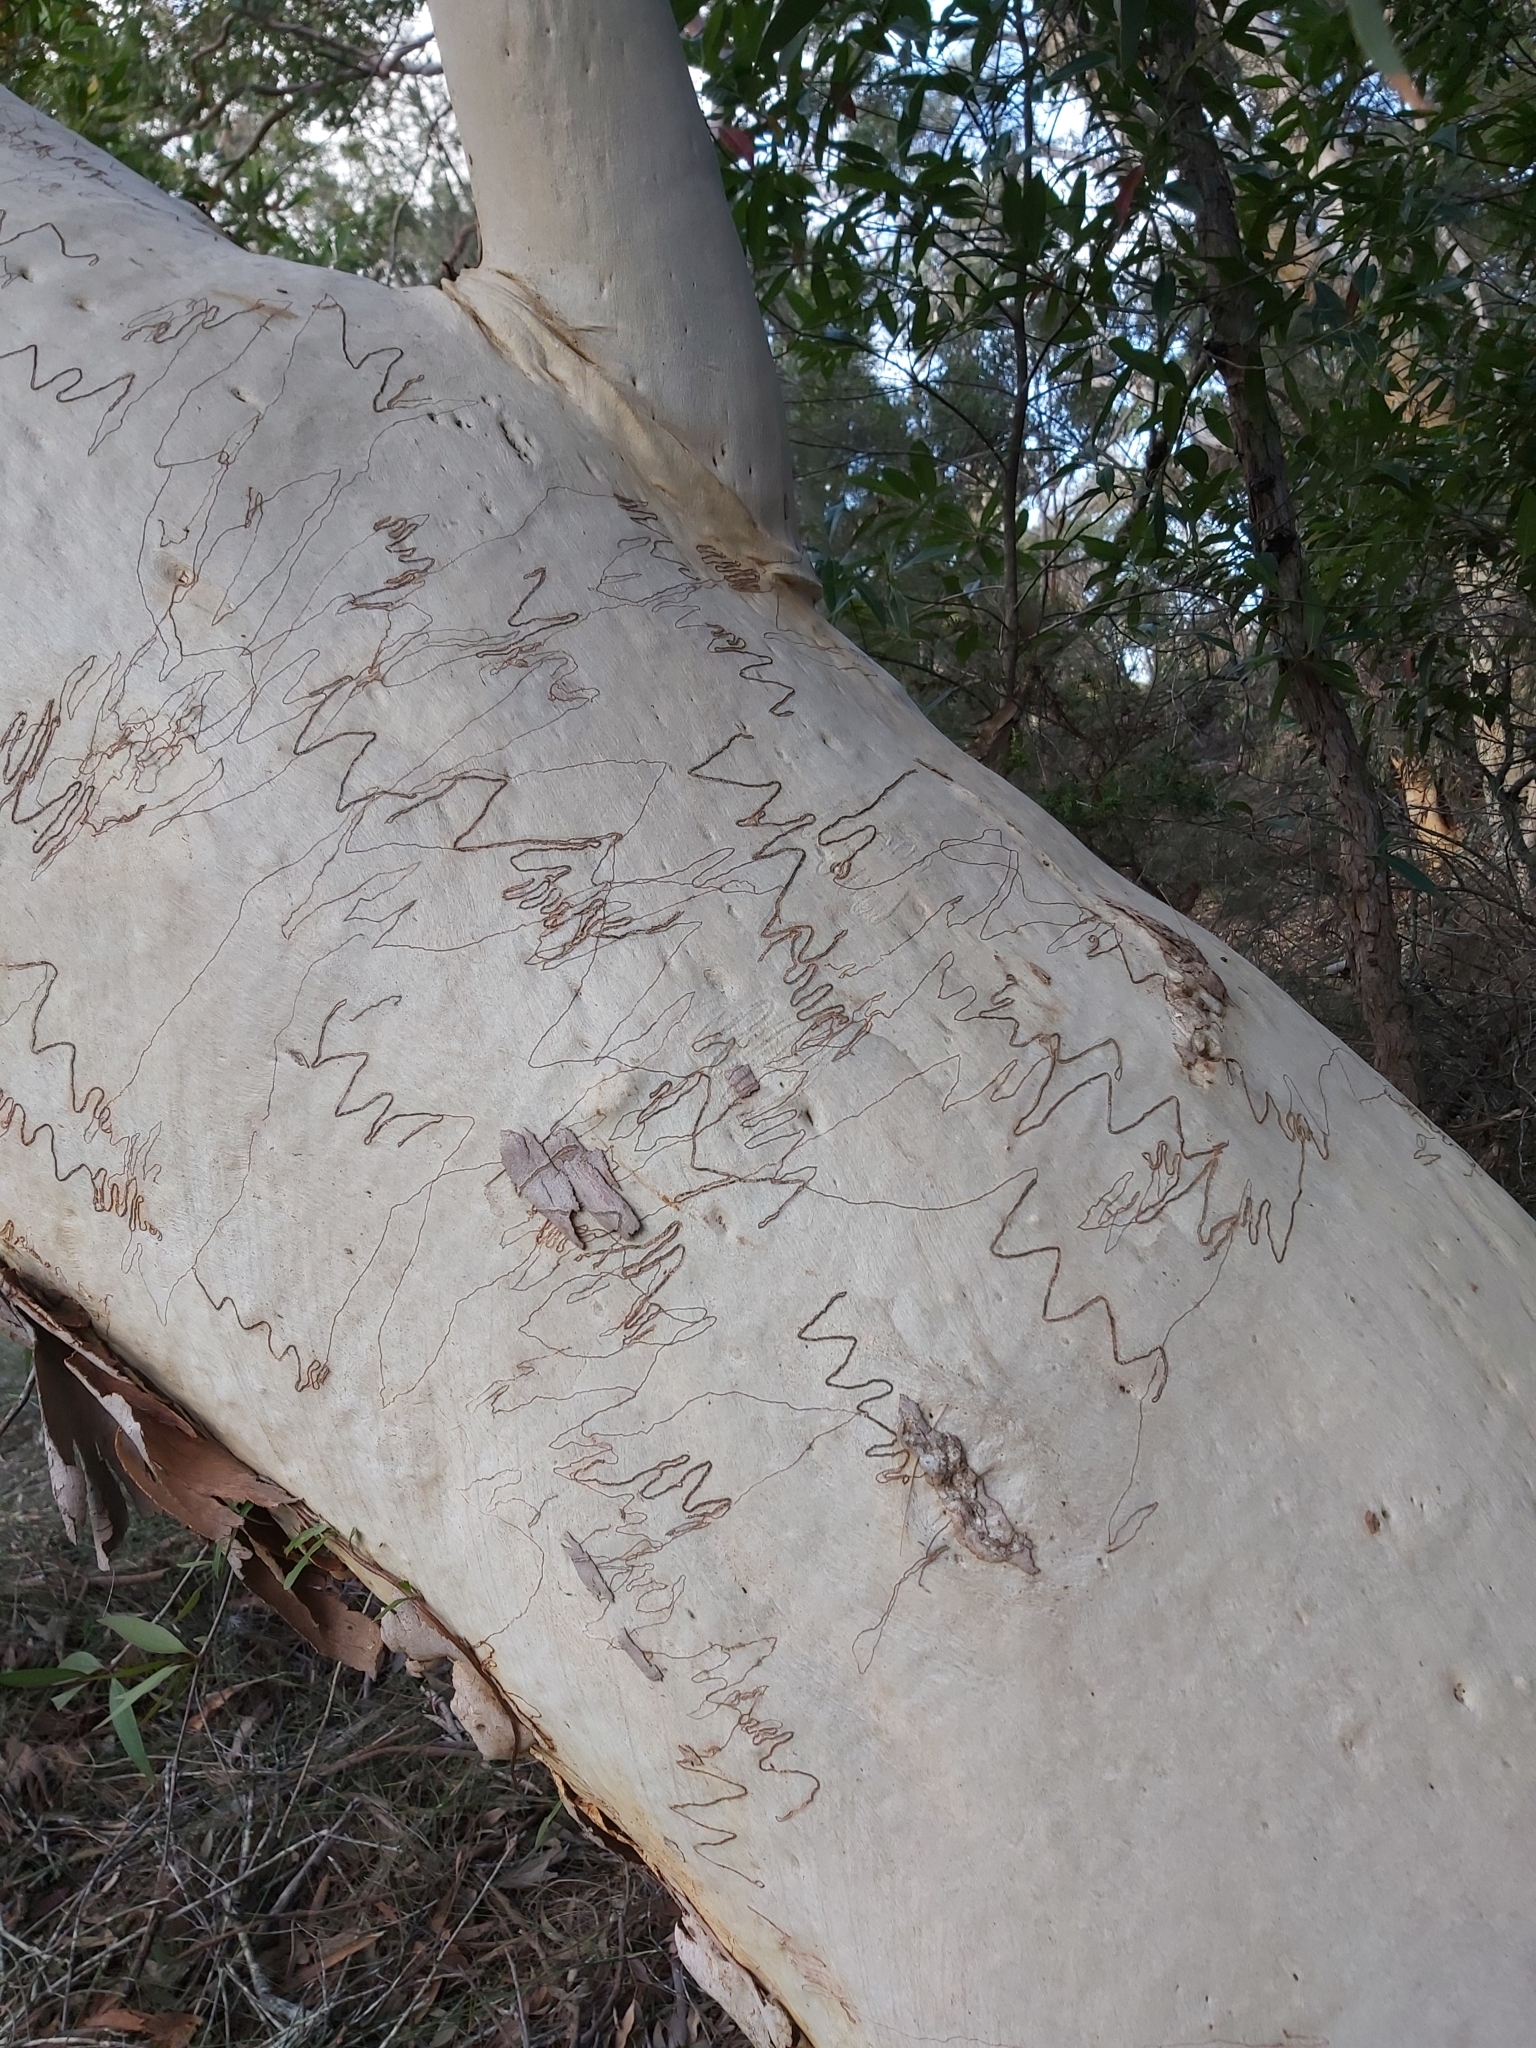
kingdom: Animalia
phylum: Arthropoda
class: Insecta
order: Lepidoptera
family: Bucculatricidae
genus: Ogmograptis
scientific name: Ogmograptis
